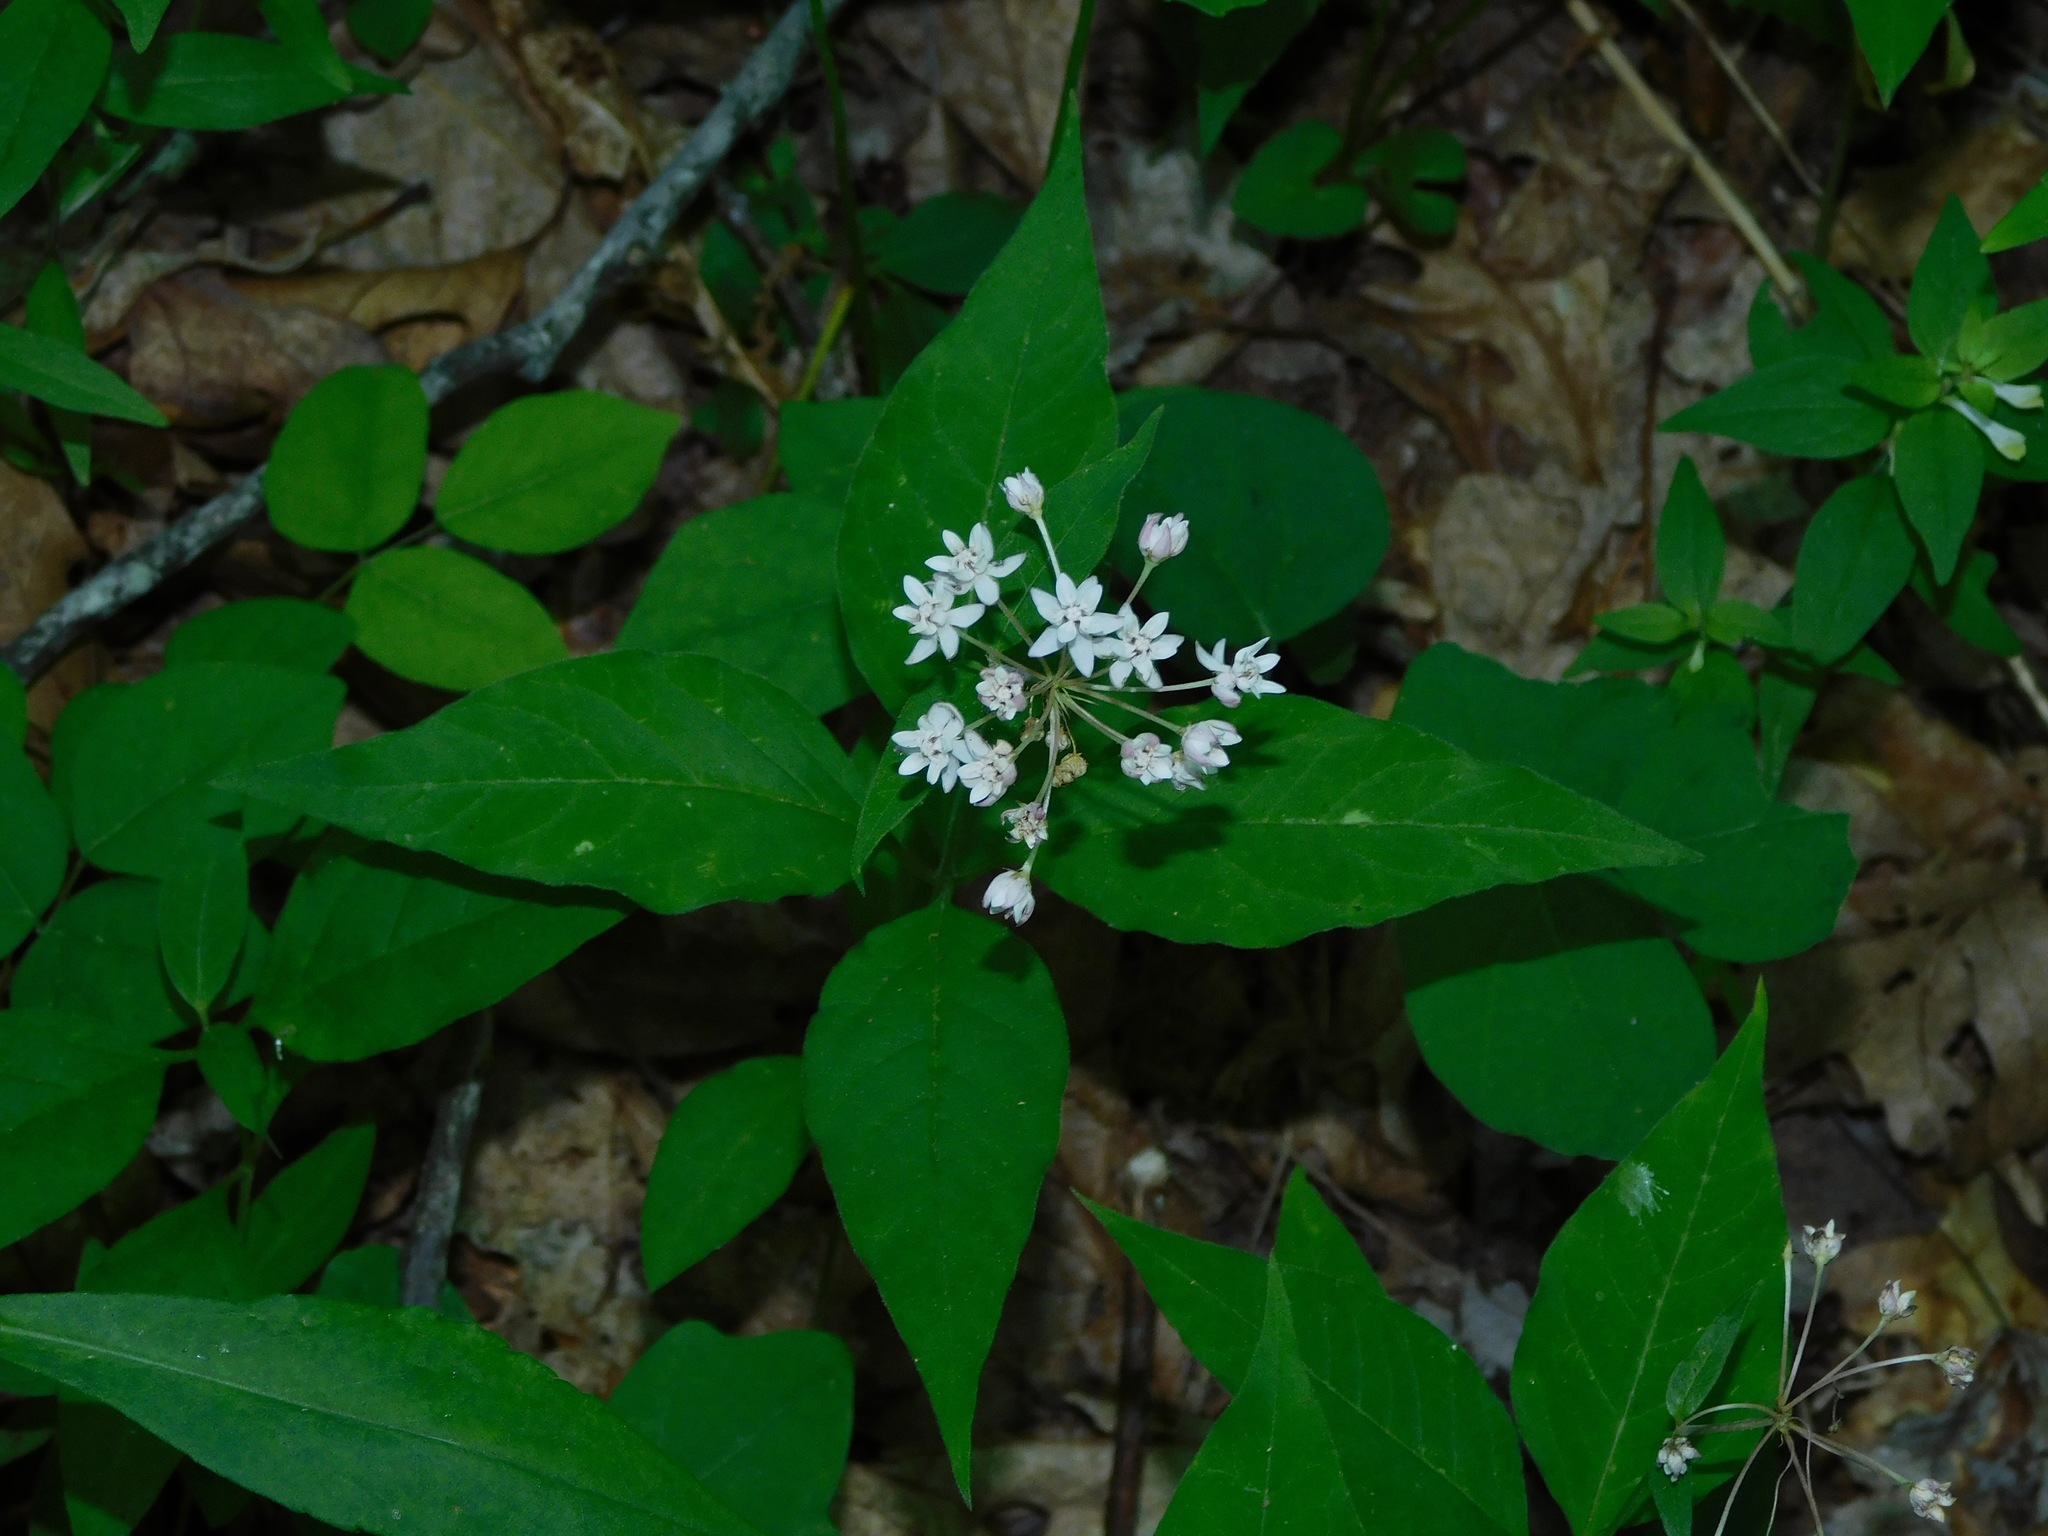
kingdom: Plantae
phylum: Tracheophyta
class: Magnoliopsida
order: Gentianales
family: Apocynaceae
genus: Asclepias
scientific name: Asclepias quadrifolia
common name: Whorled milkweed
